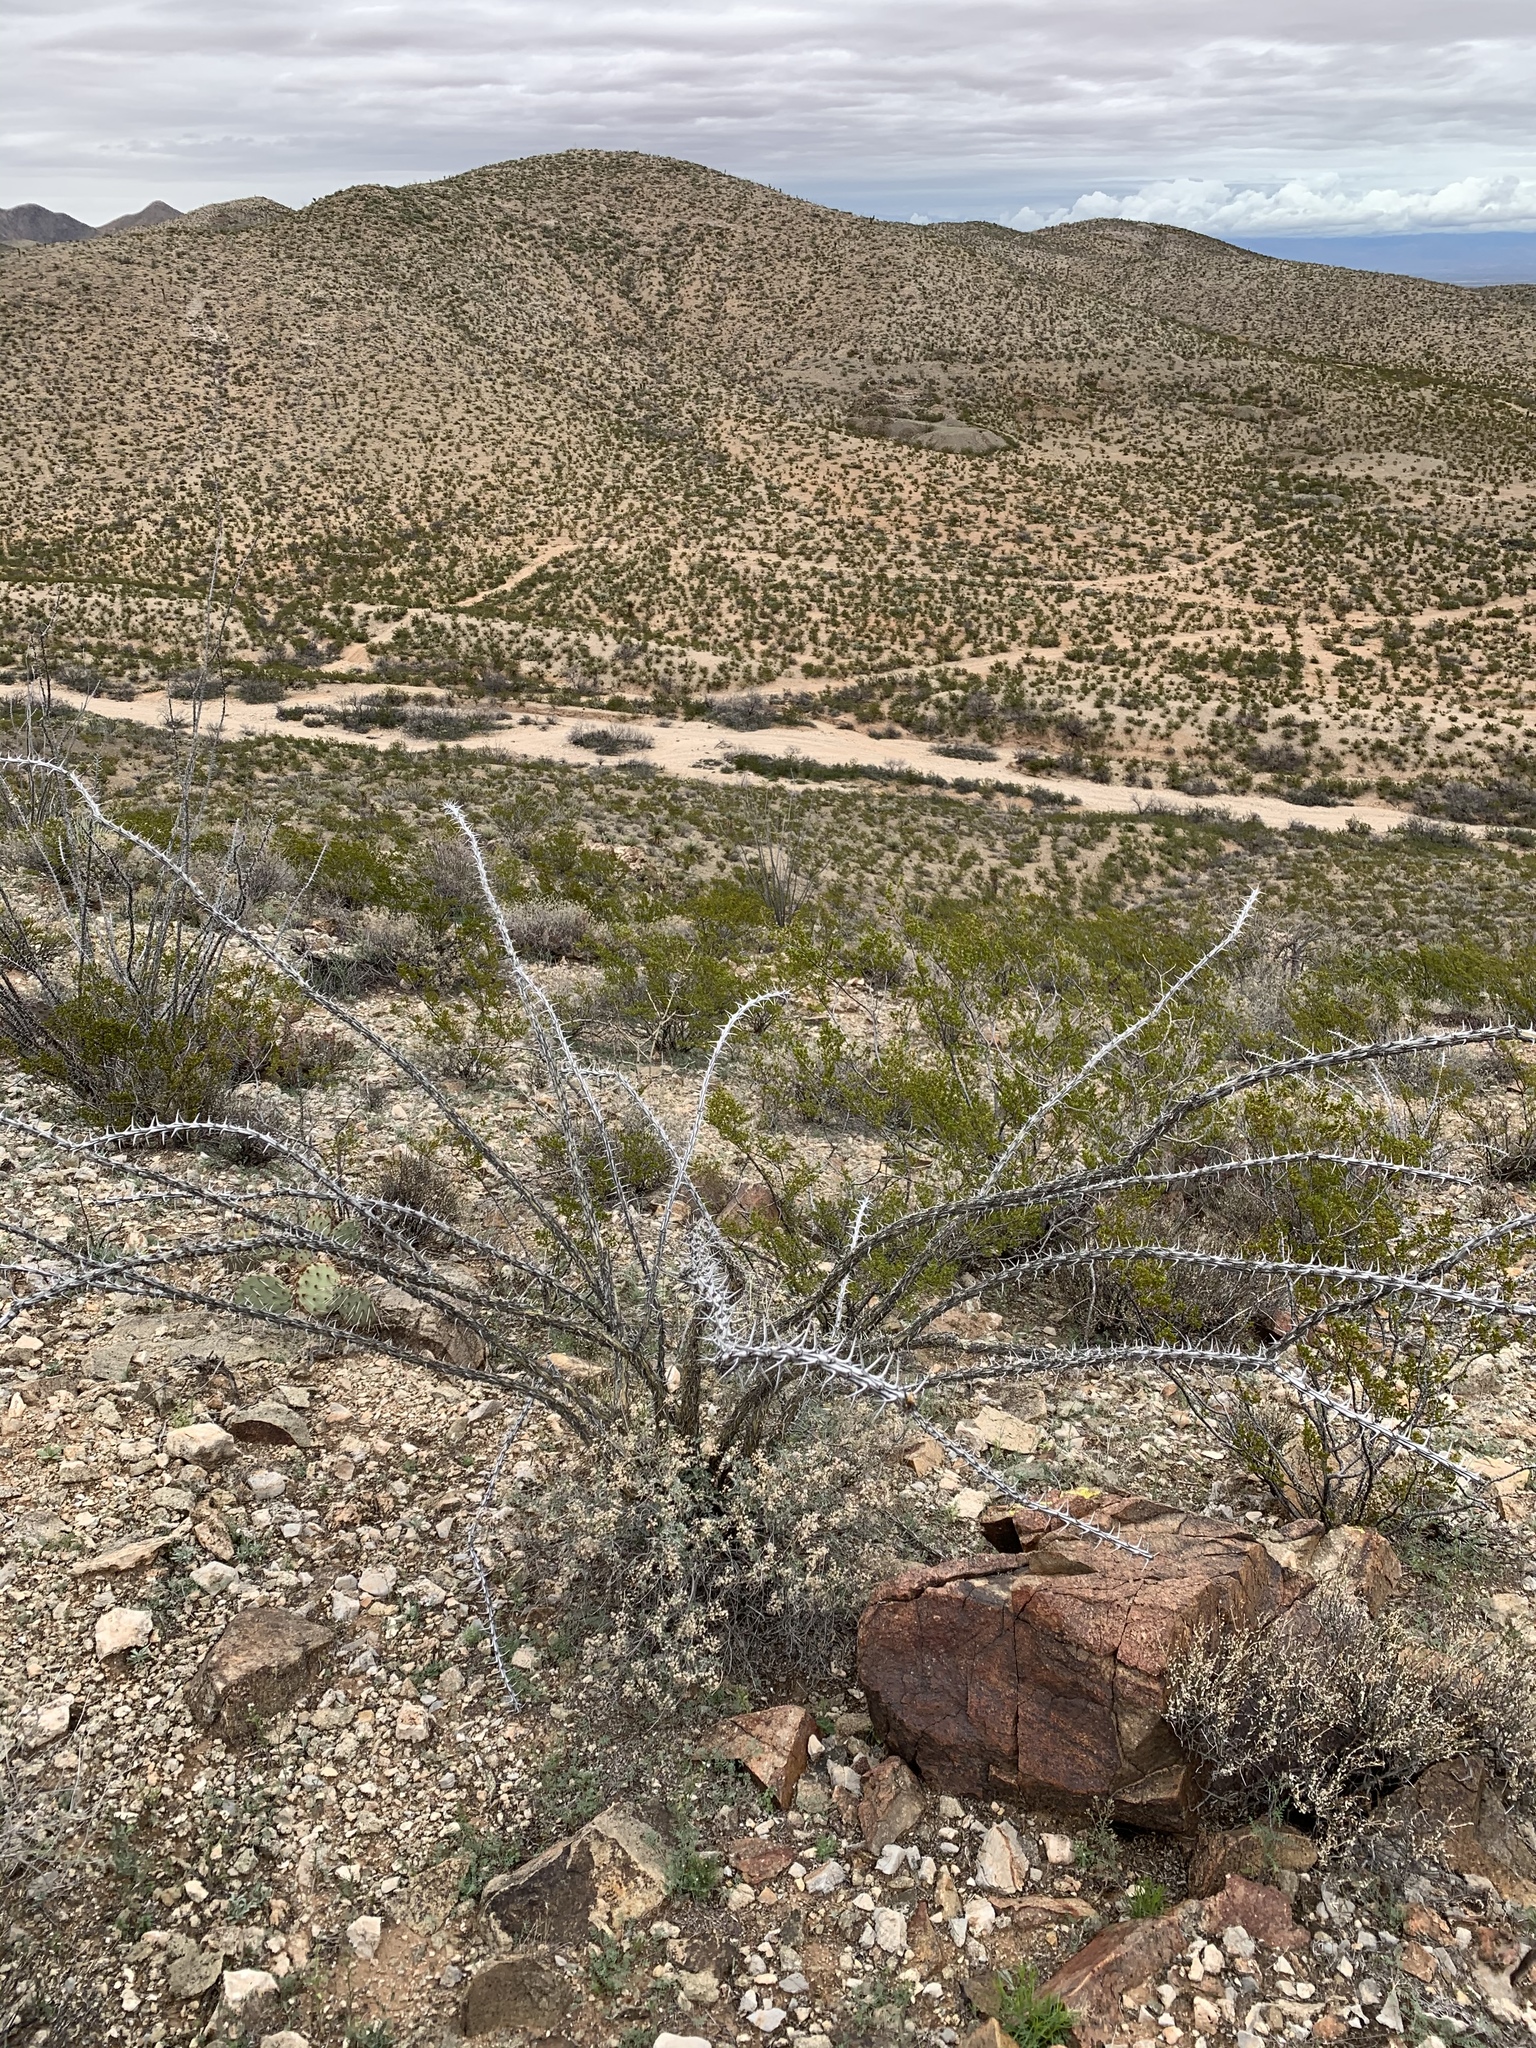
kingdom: Plantae
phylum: Tracheophyta
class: Magnoliopsida
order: Ericales
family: Fouquieriaceae
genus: Fouquieria
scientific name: Fouquieria splendens
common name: Vine-cactus
